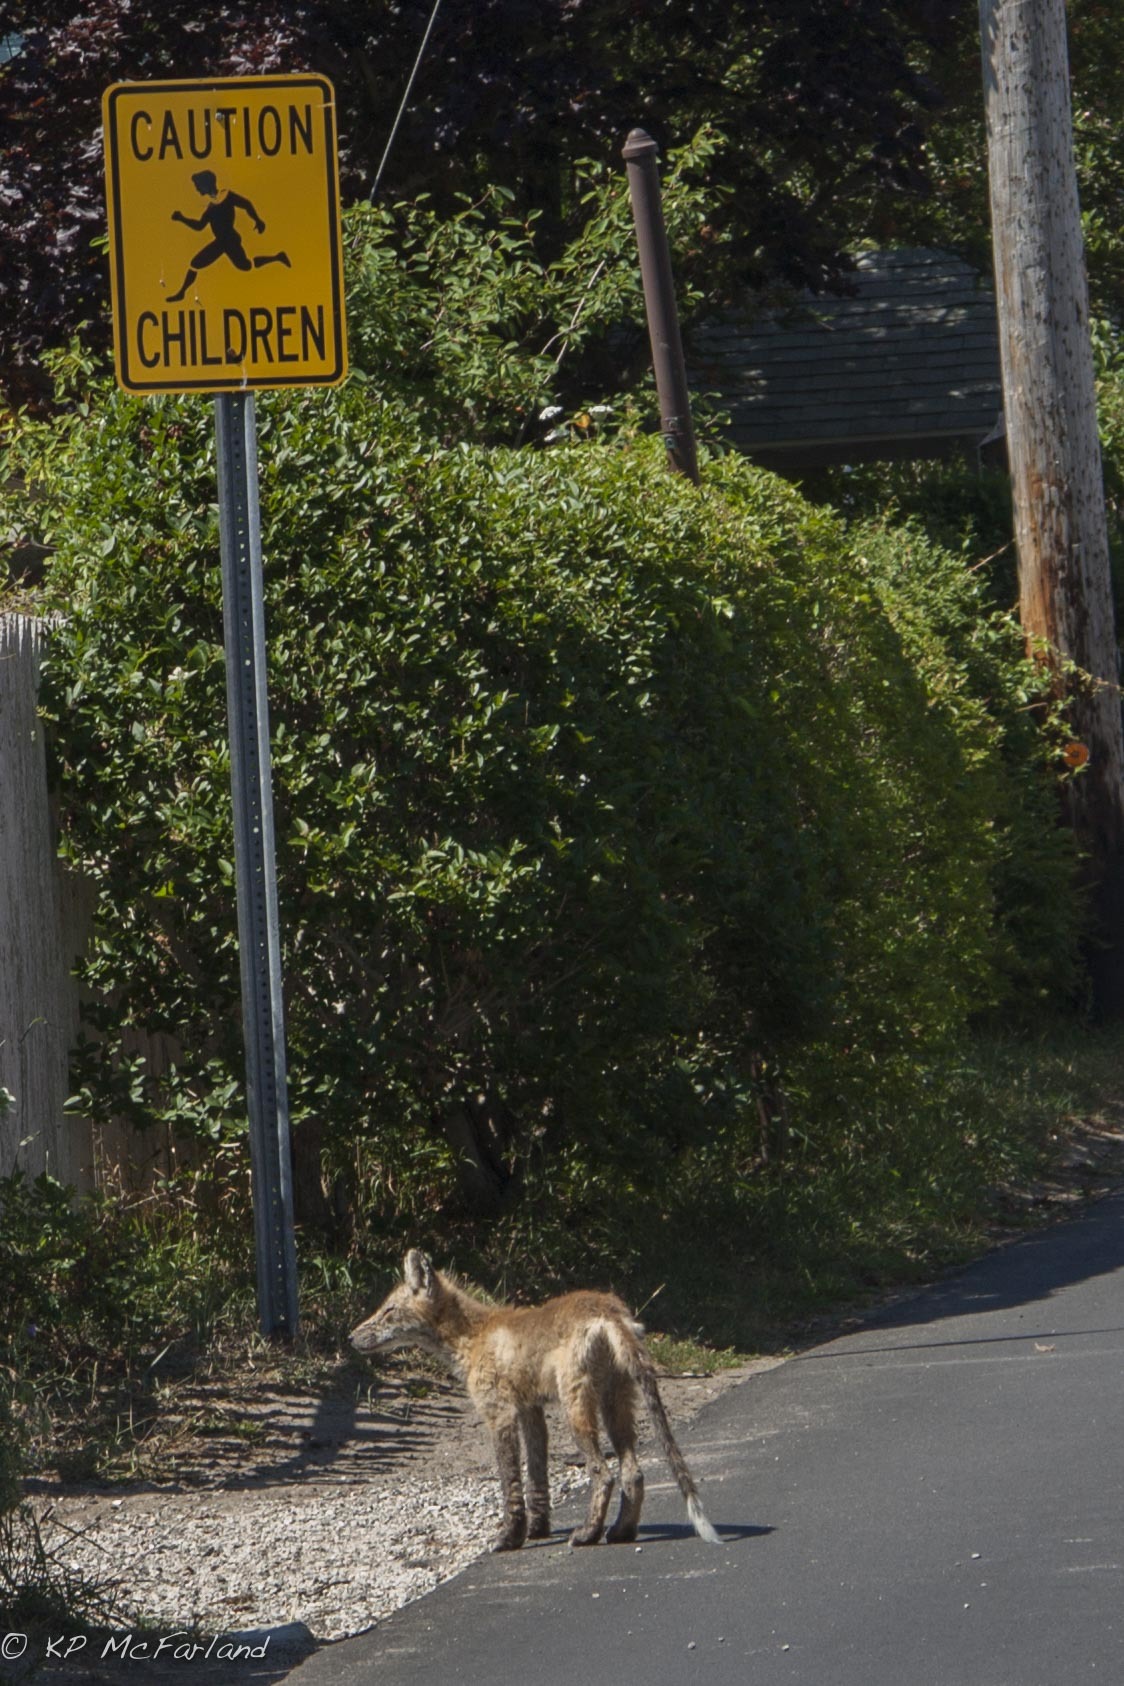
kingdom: Animalia
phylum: Chordata
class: Mammalia
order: Carnivora
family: Canidae
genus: Vulpes
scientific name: Vulpes vulpes
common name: Red fox
